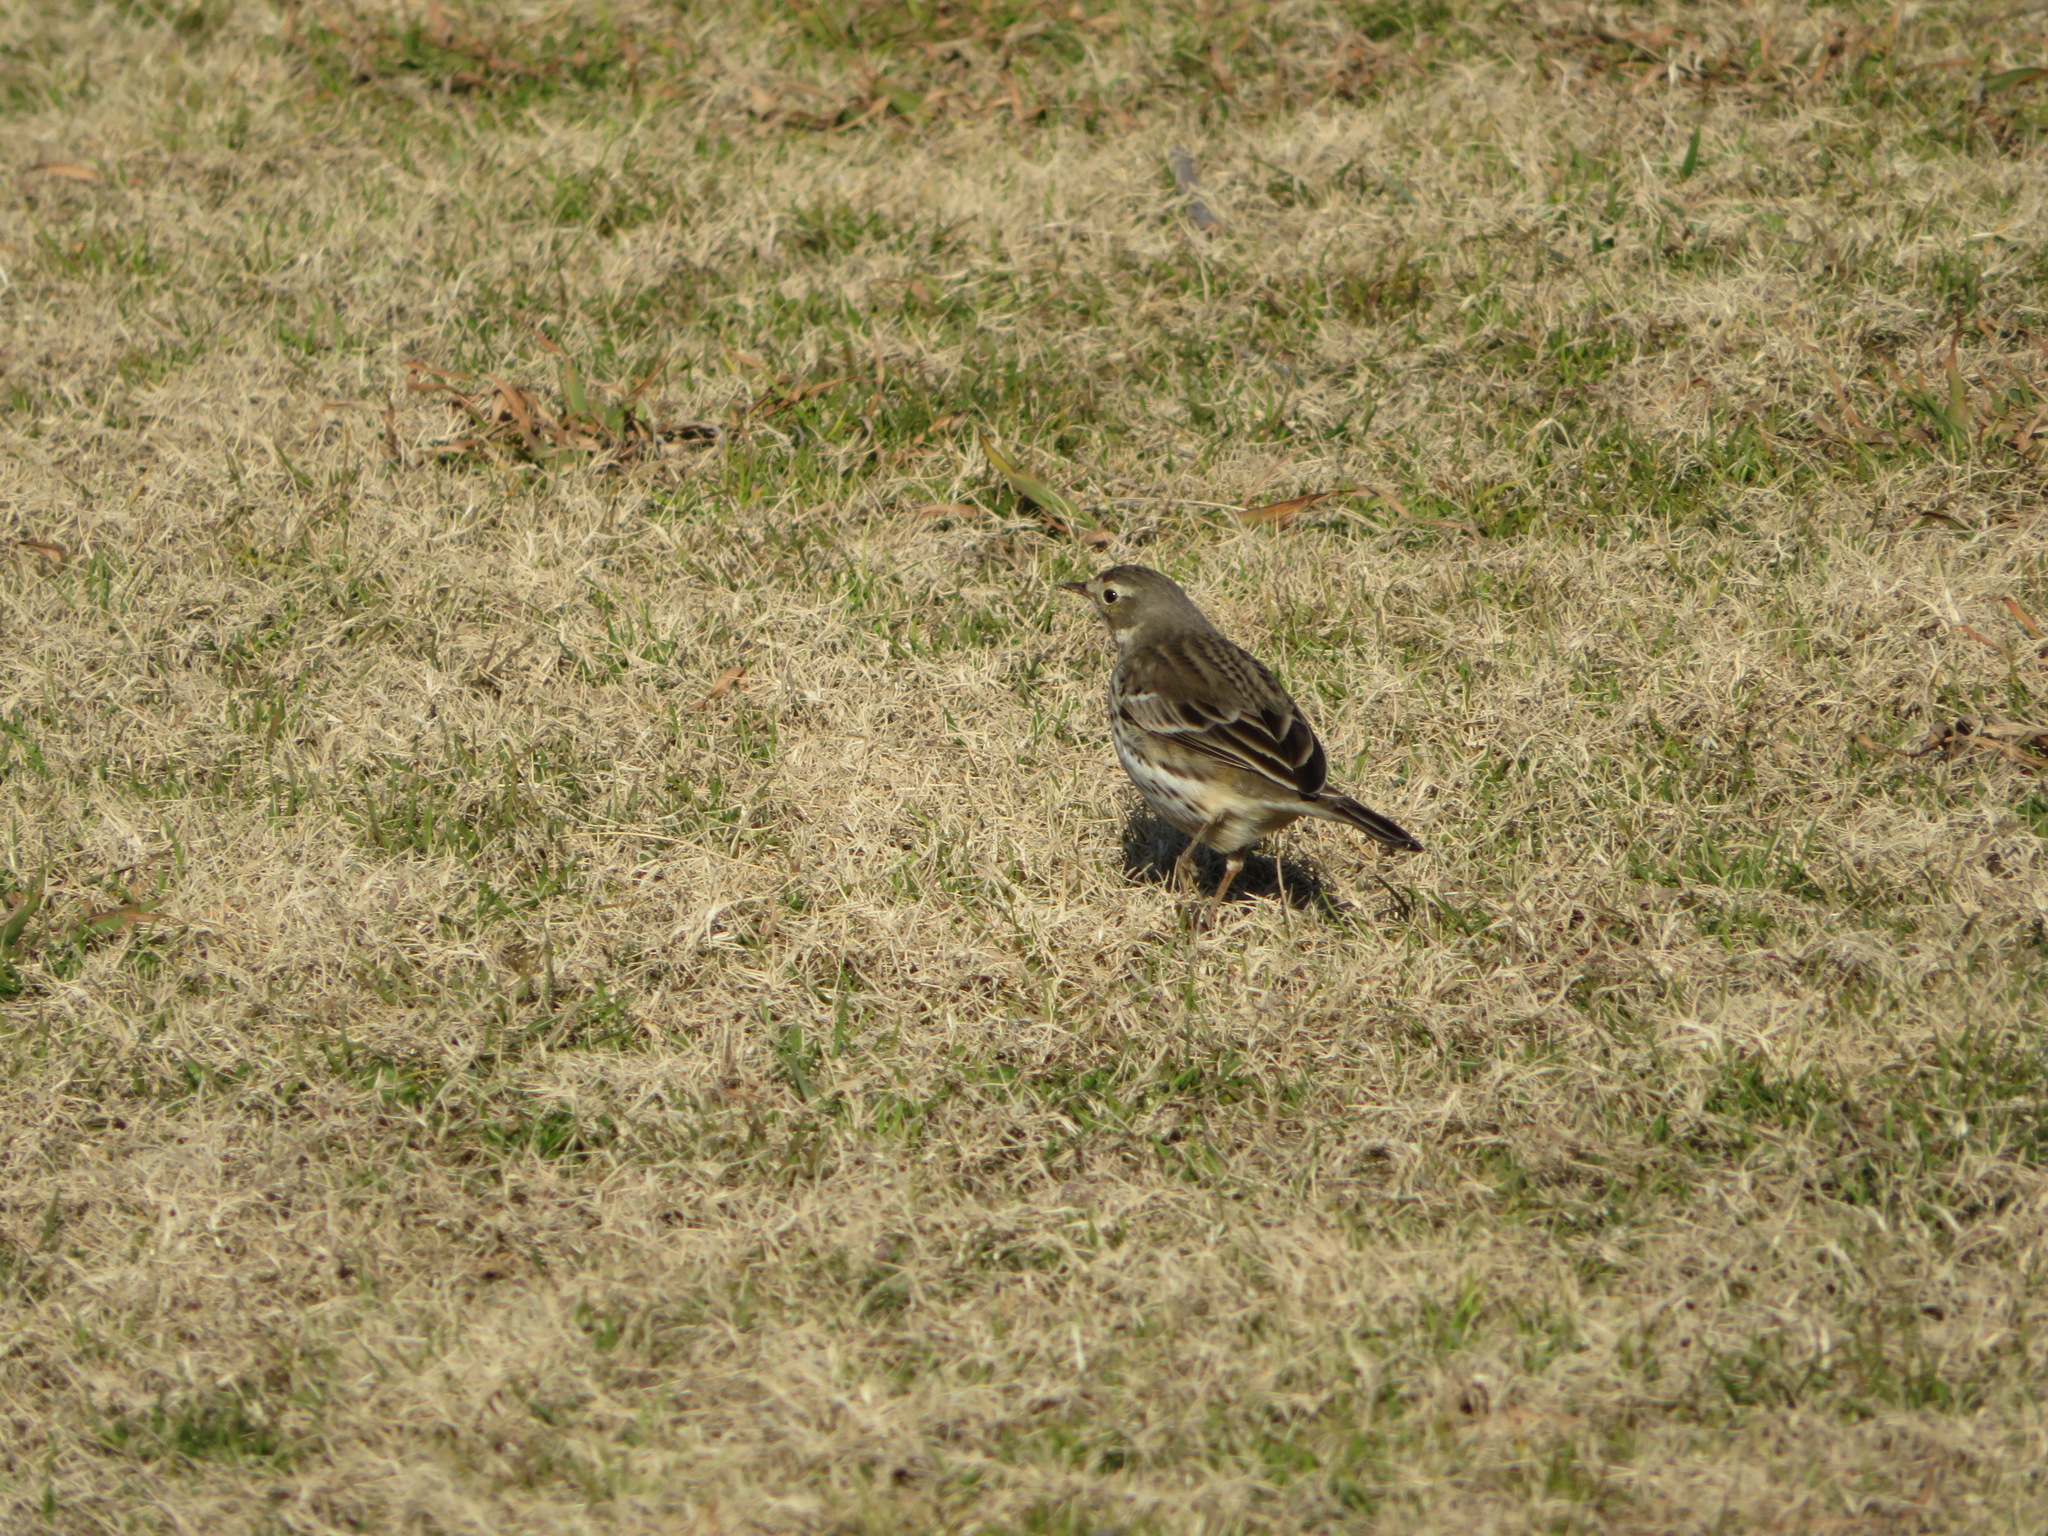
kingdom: Animalia
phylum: Chordata
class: Aves
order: Passeriformes
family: Motacillidae
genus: Anthus
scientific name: Anthus rubescens
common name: Buff-bellied pipit
